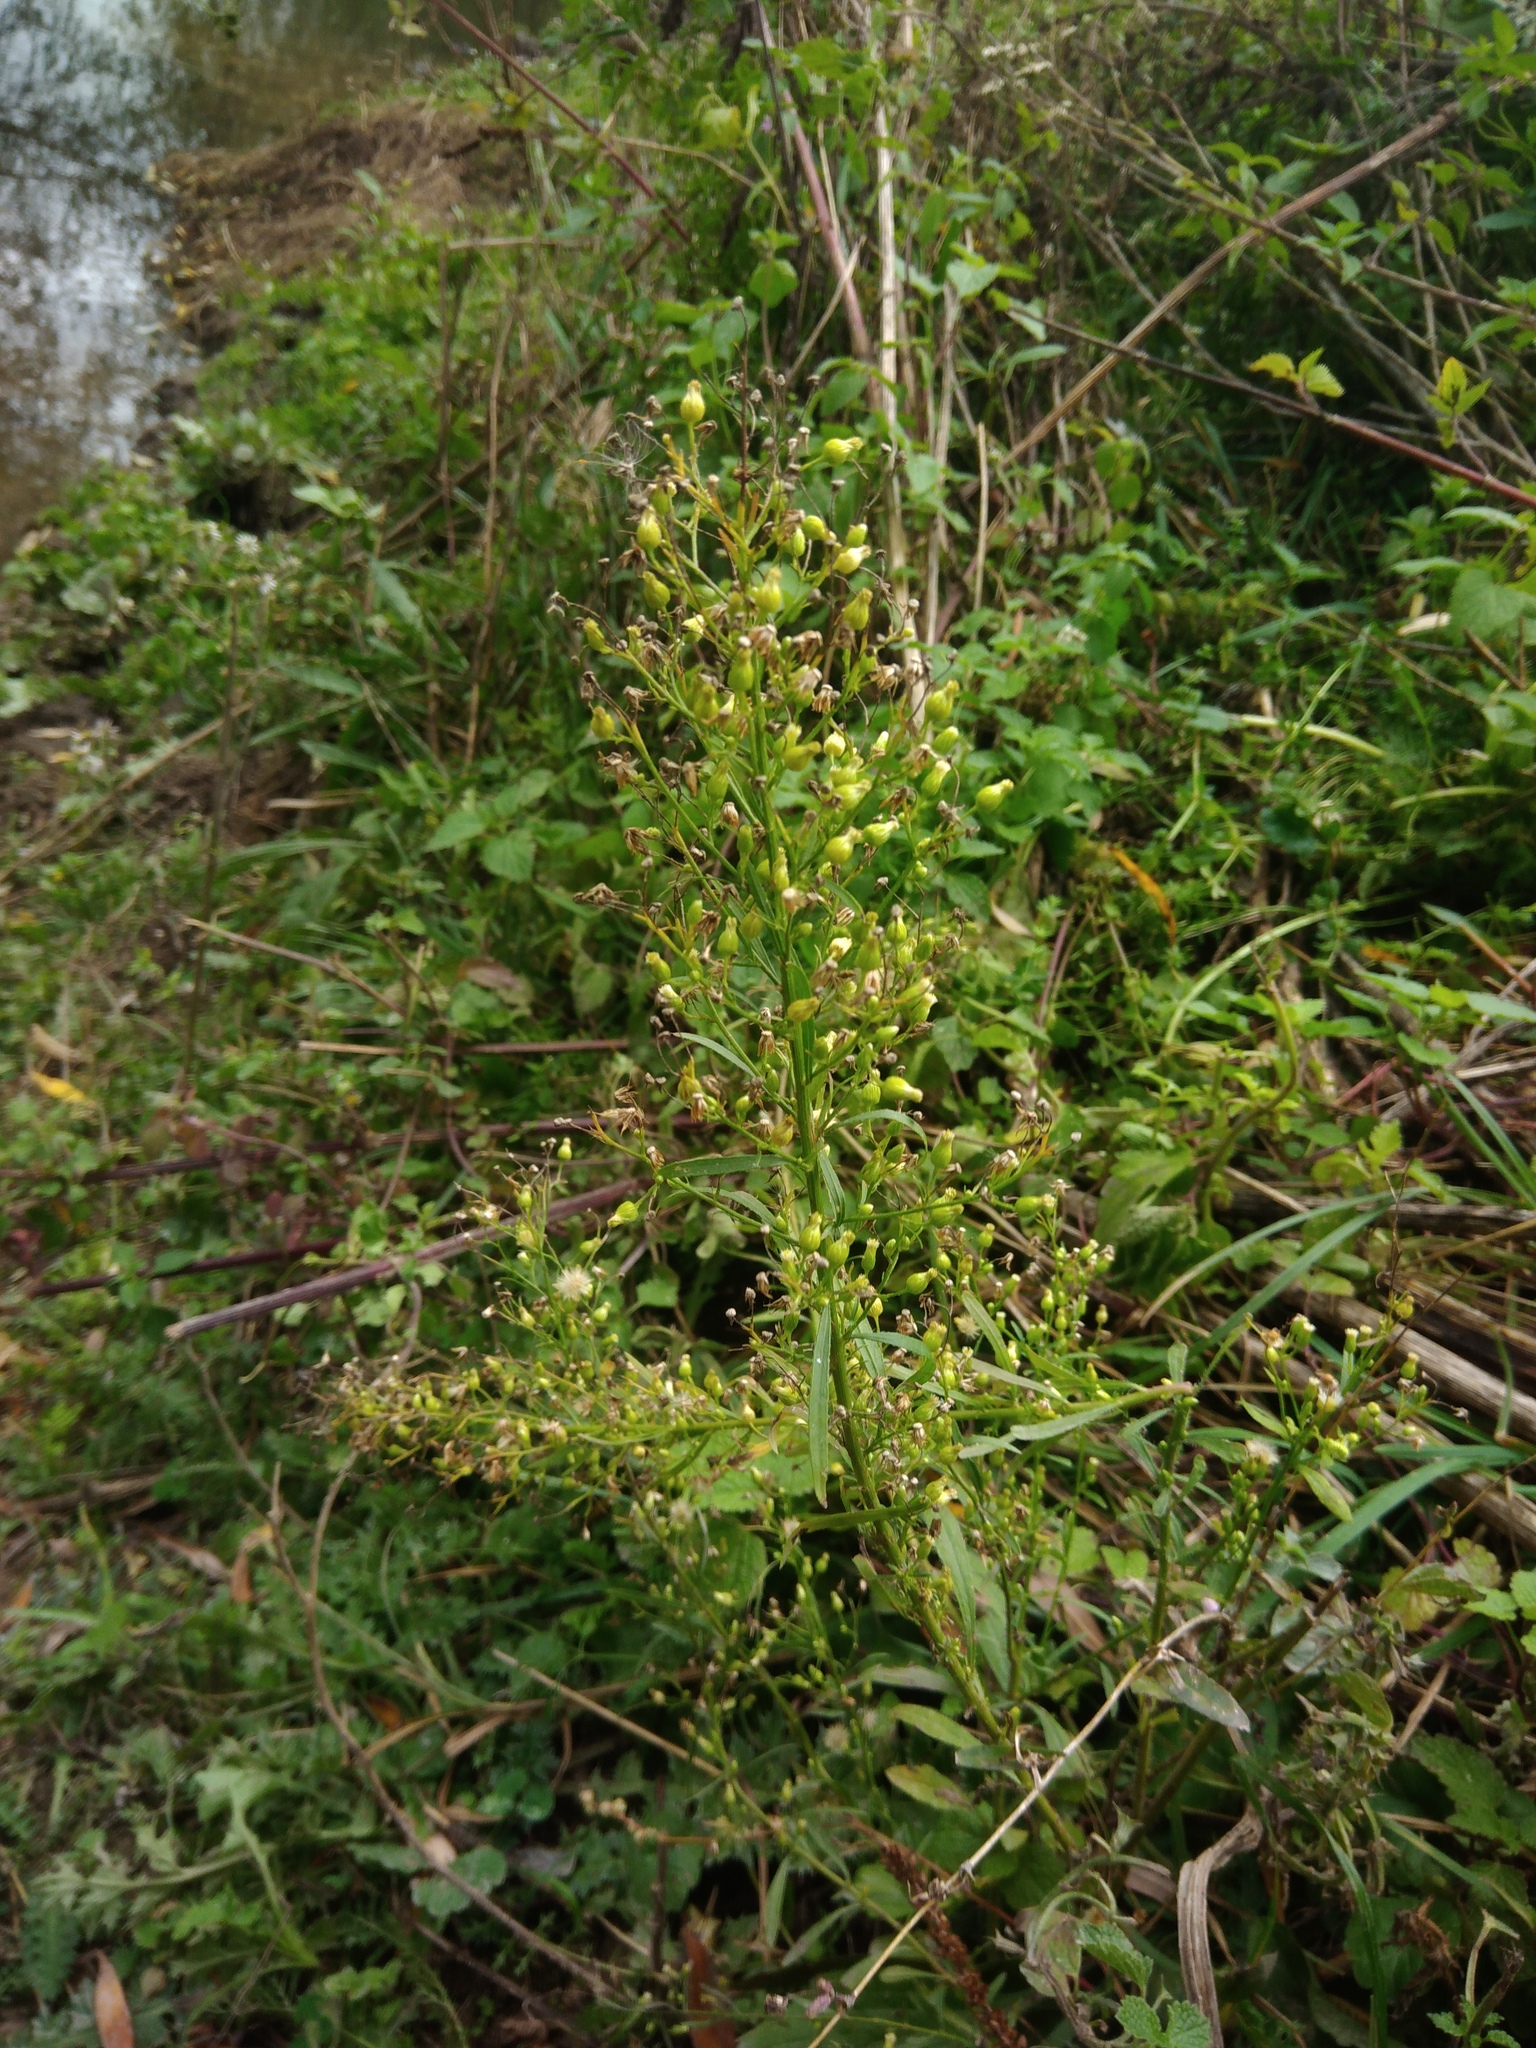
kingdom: Plantae
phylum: Tracheophyta
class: Magnoliopsida
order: Asterales
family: Asteraceae
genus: Erigeron
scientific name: Erigeron canadensis
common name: Canadian fleabane
